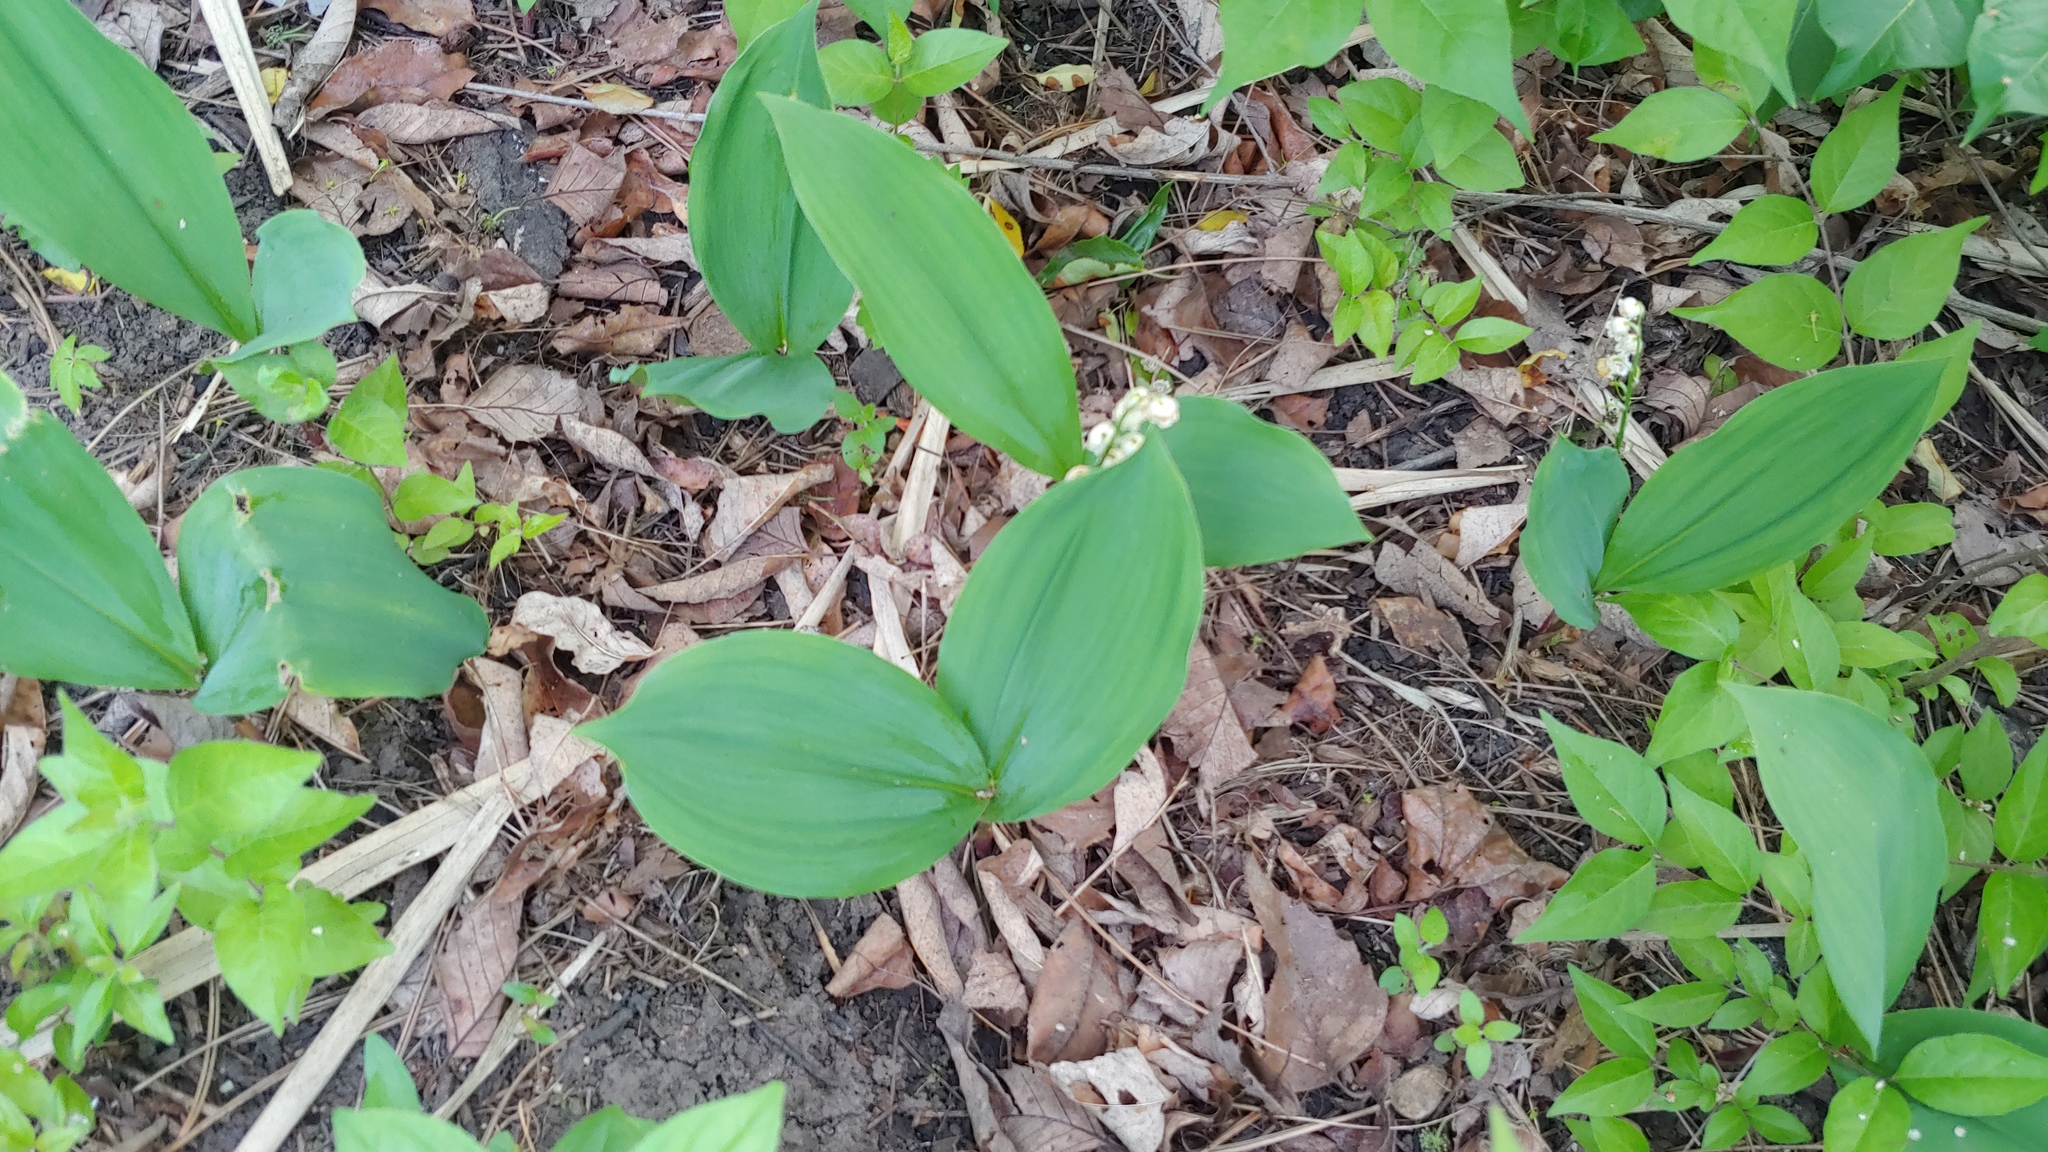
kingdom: Plantae
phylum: Tracheophyta
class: Liliopsida
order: Asparagales
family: Asparagaceae
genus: Convallaria
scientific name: Convallaria majalis
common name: Lily-of-the-valley
